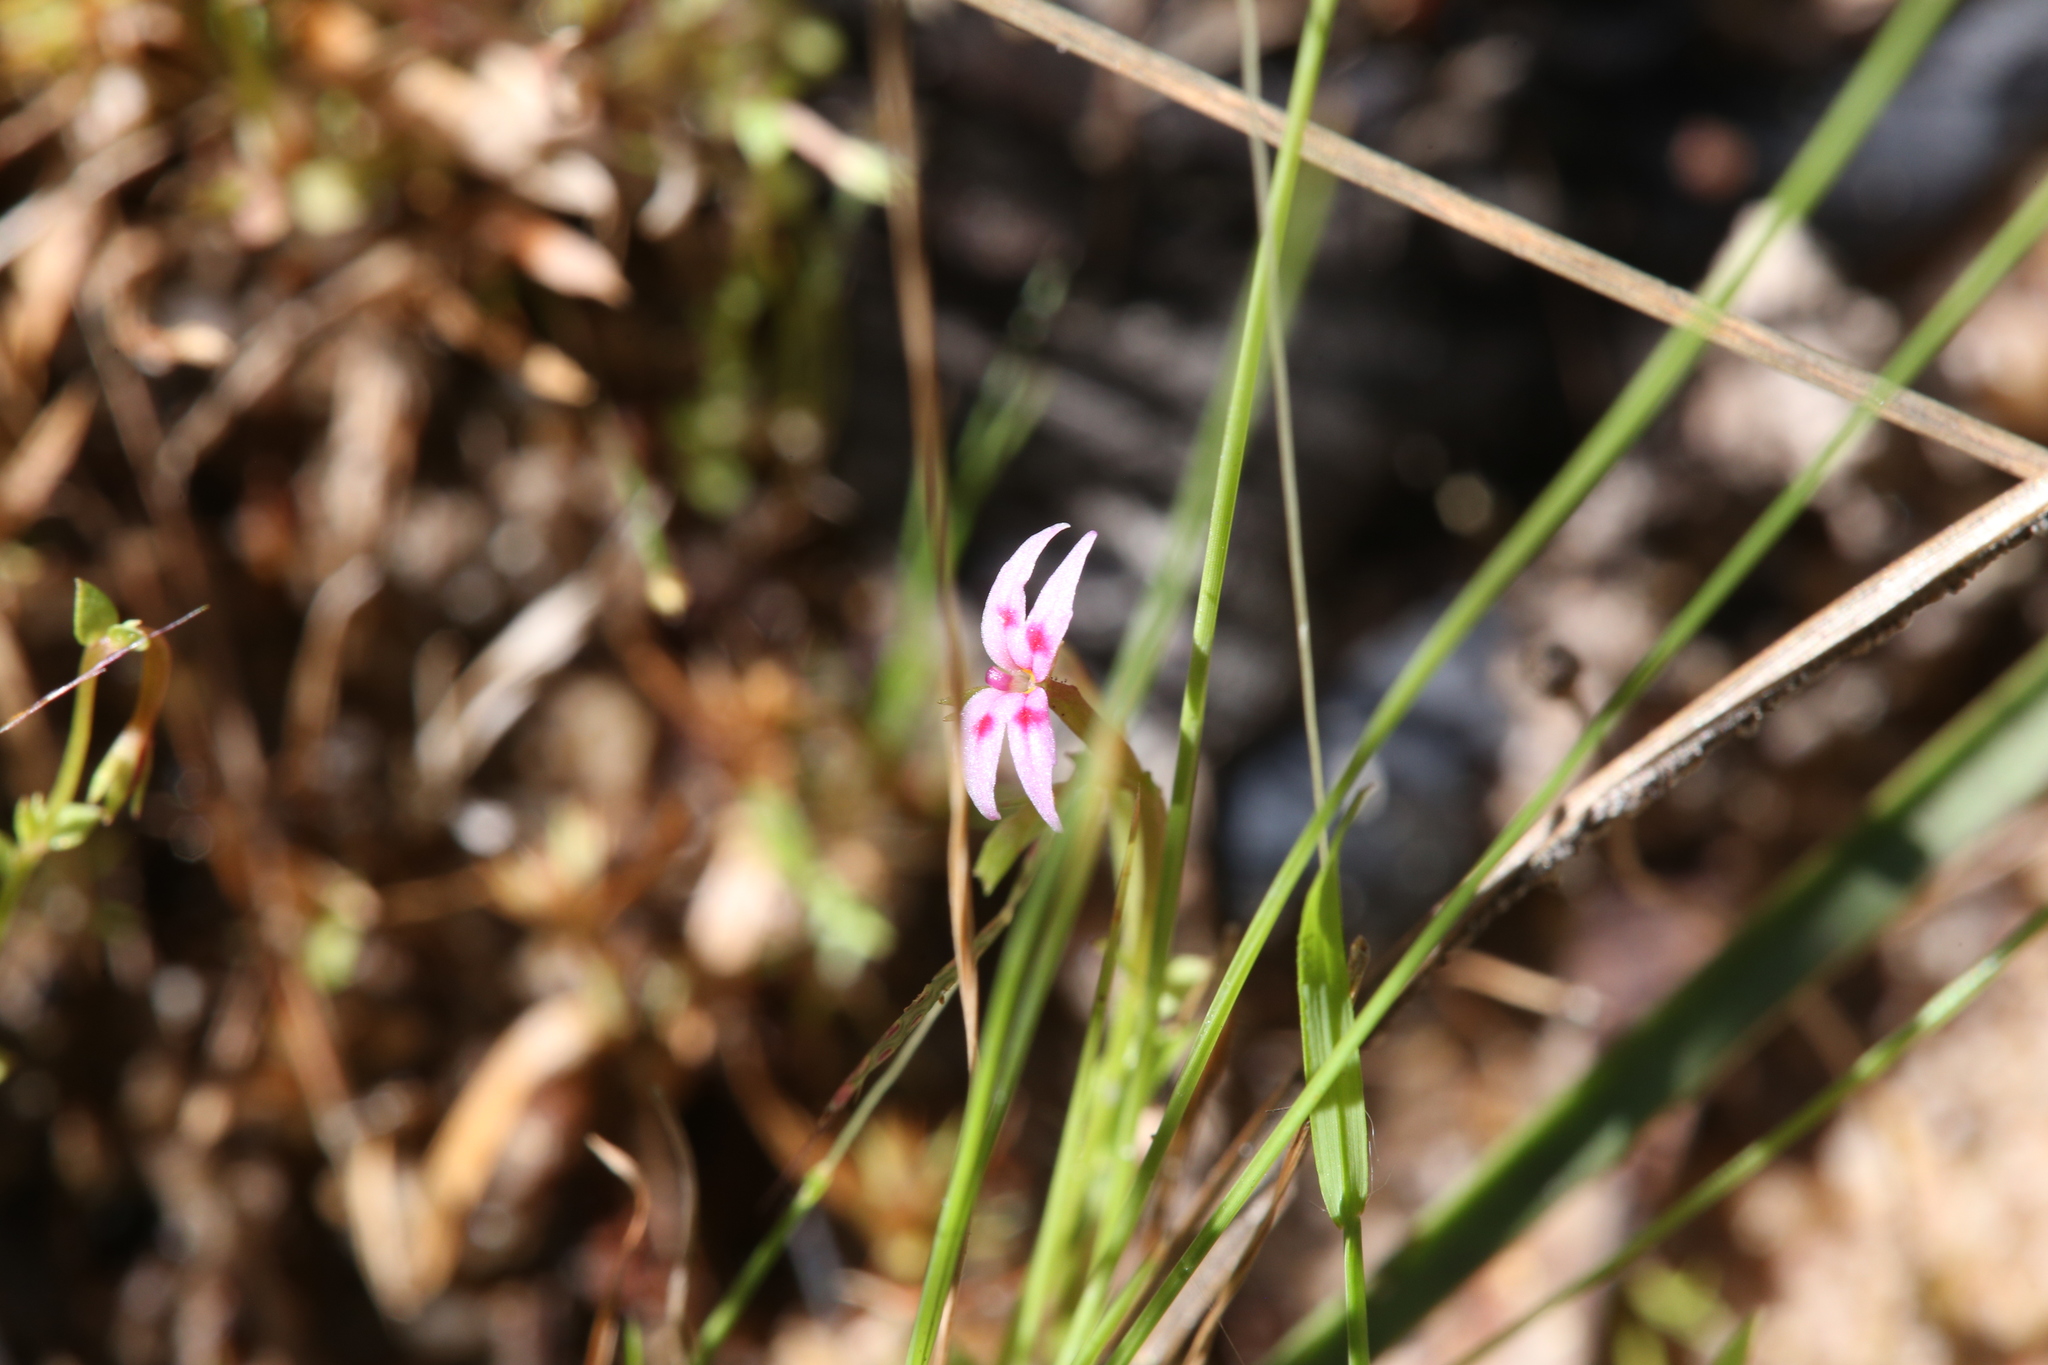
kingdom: Plantae
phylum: Tracheophyta
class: Magnoliopsida
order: Asterales
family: Stylidiaceae
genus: Stylidium
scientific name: Stylidium cordifolium
